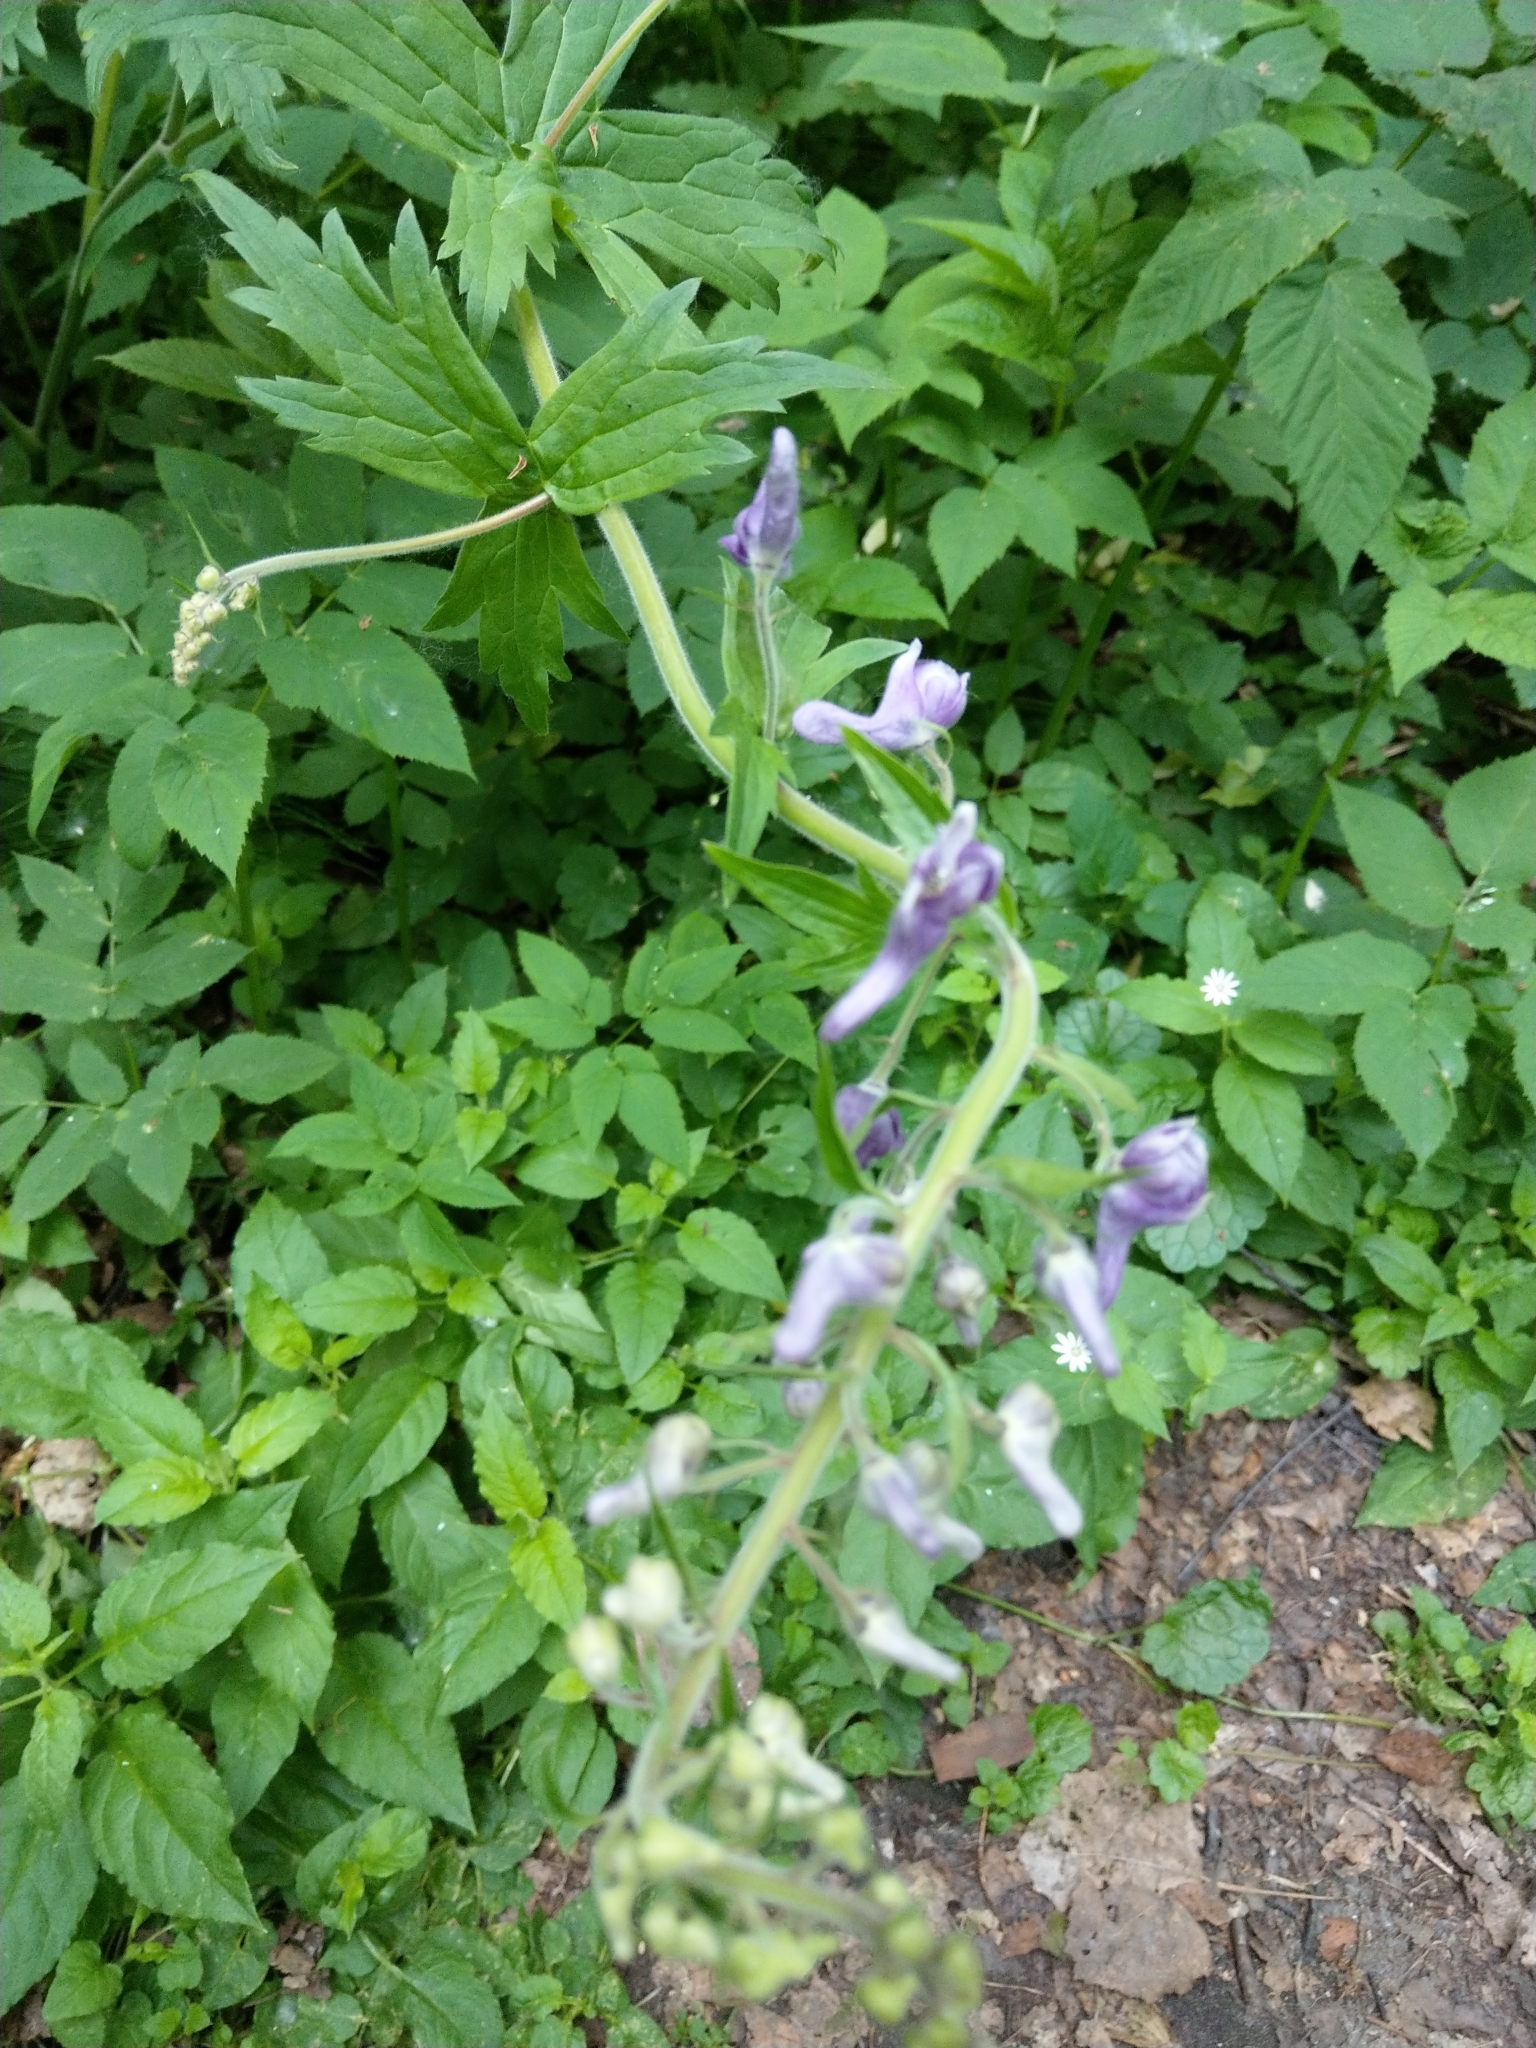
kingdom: Plantae
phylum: Tracheophyta
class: Magnoliopsida
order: Ranunculales
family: Ranunculaceae
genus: Aconitum
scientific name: Aconitum septentrionale
